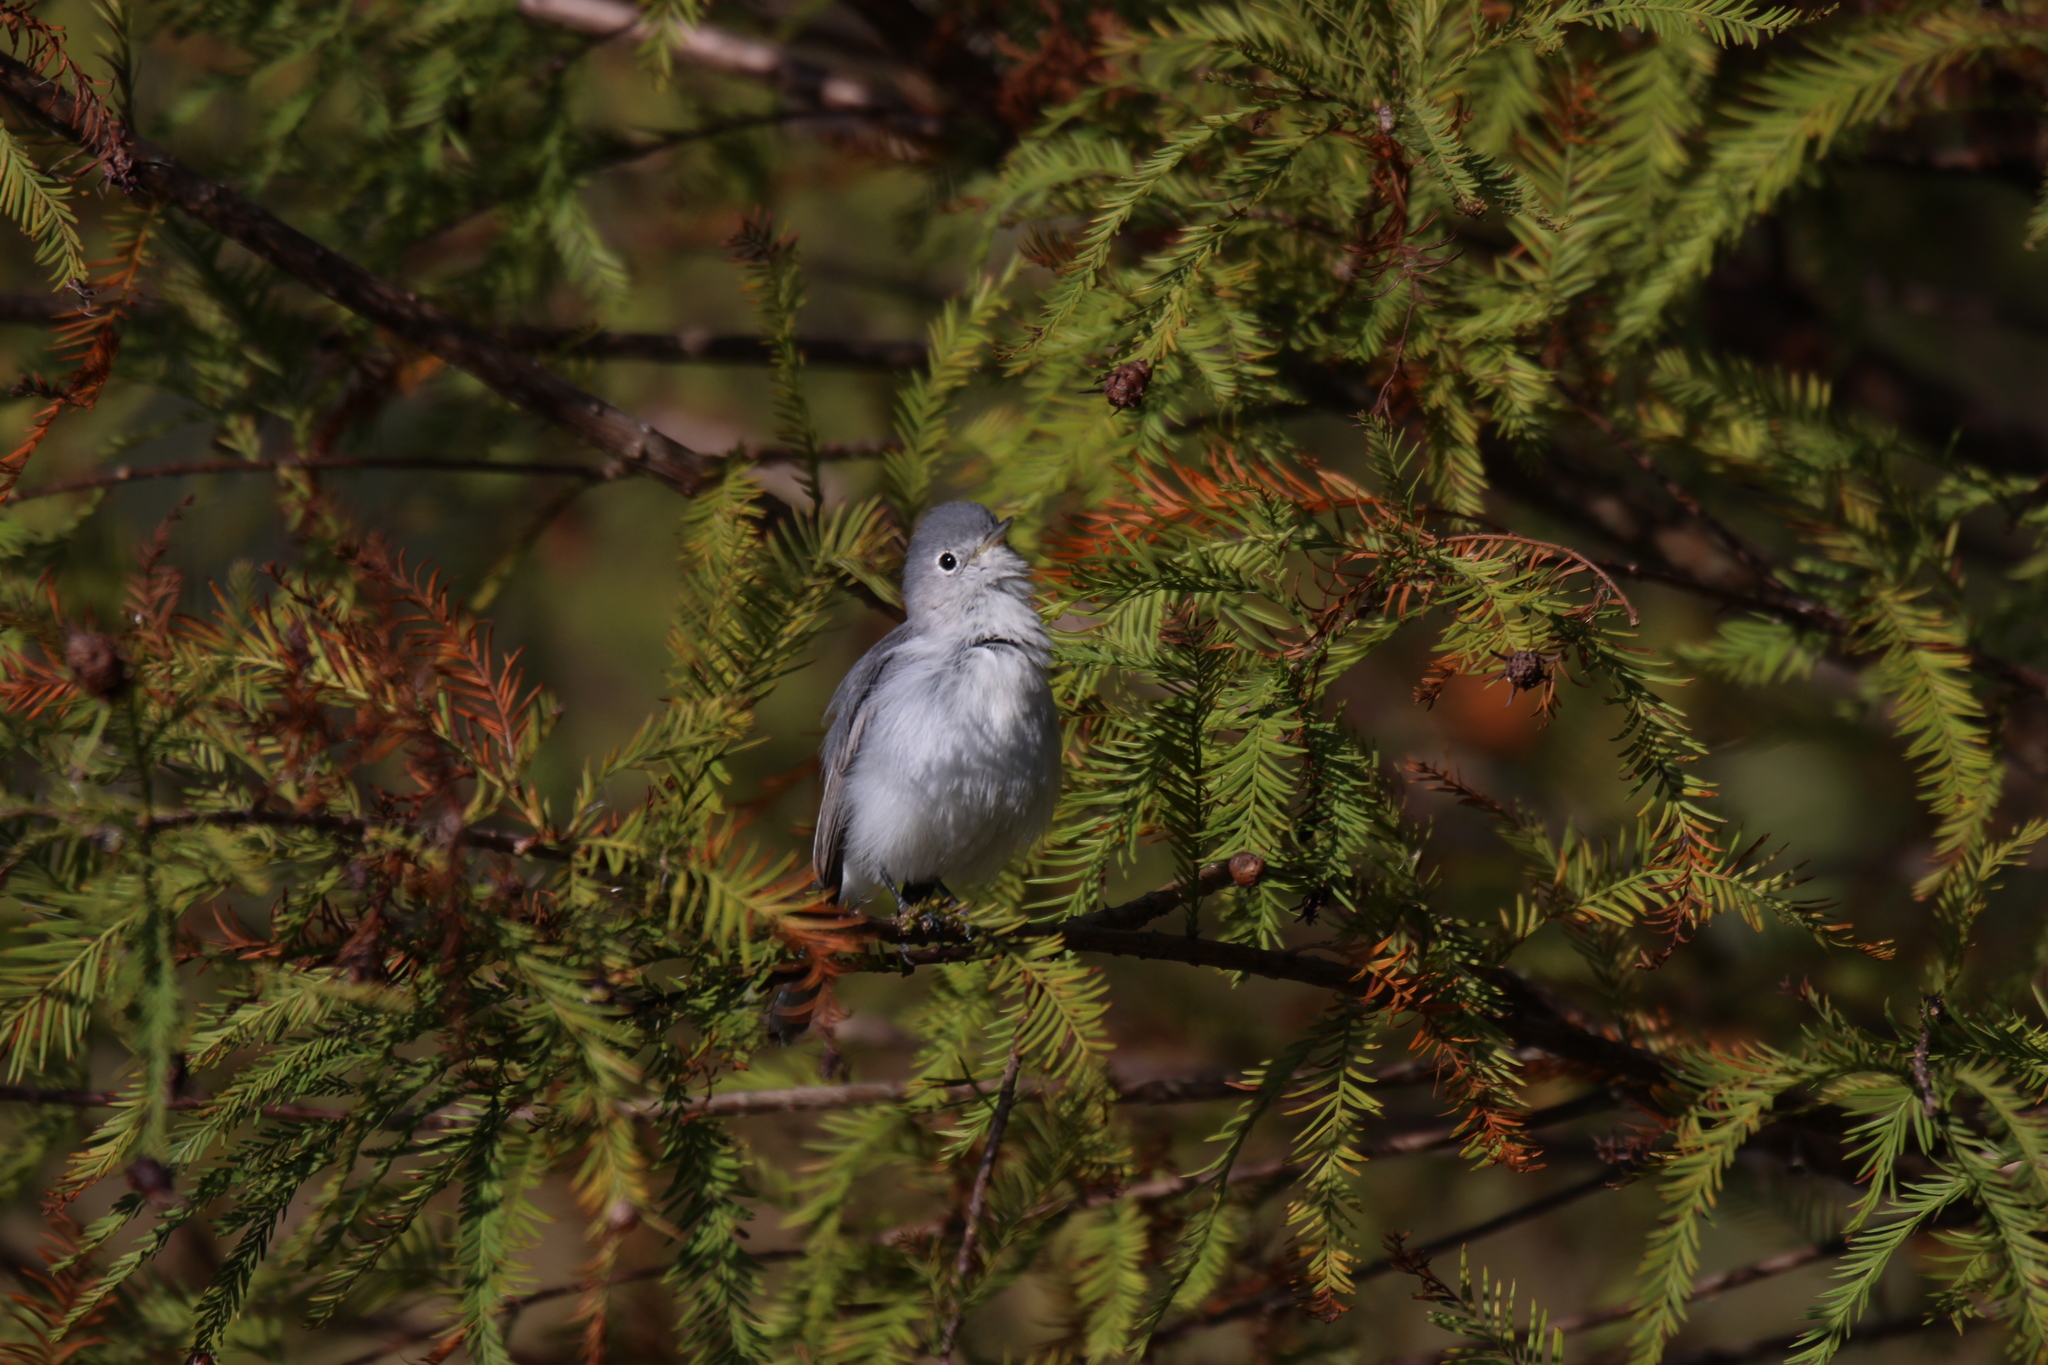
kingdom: Animalia
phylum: Chordata
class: Aves
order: Passeriformes
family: Polioptilidae
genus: Polioptila
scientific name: Polioptila caerulea
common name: Blue-gray gnatcatcher
